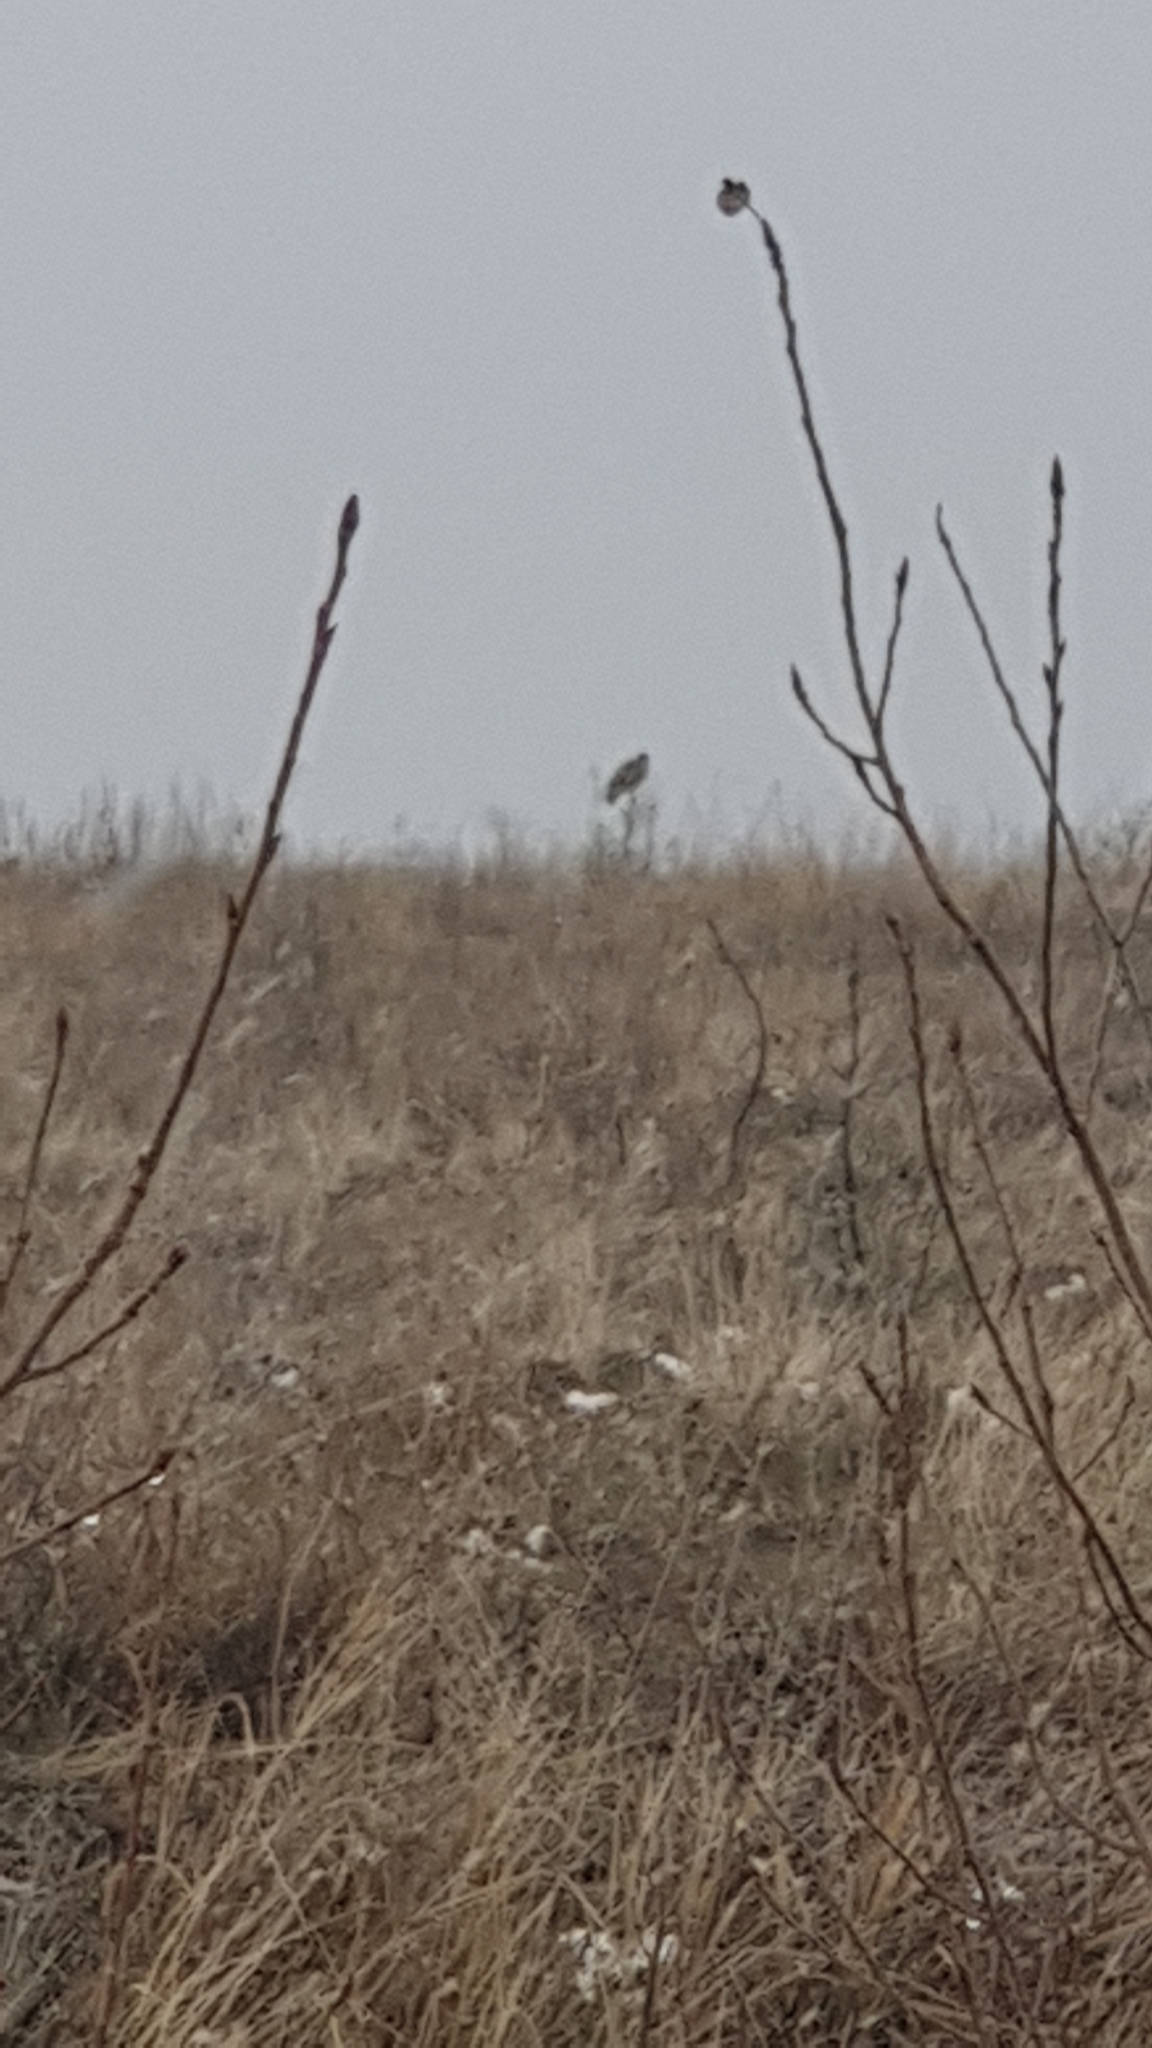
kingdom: Animalia
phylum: Chordata
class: Aves
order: Accipitriformes
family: Accipitridae
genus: Buteo
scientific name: Buteo buteo
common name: Common buzzard
